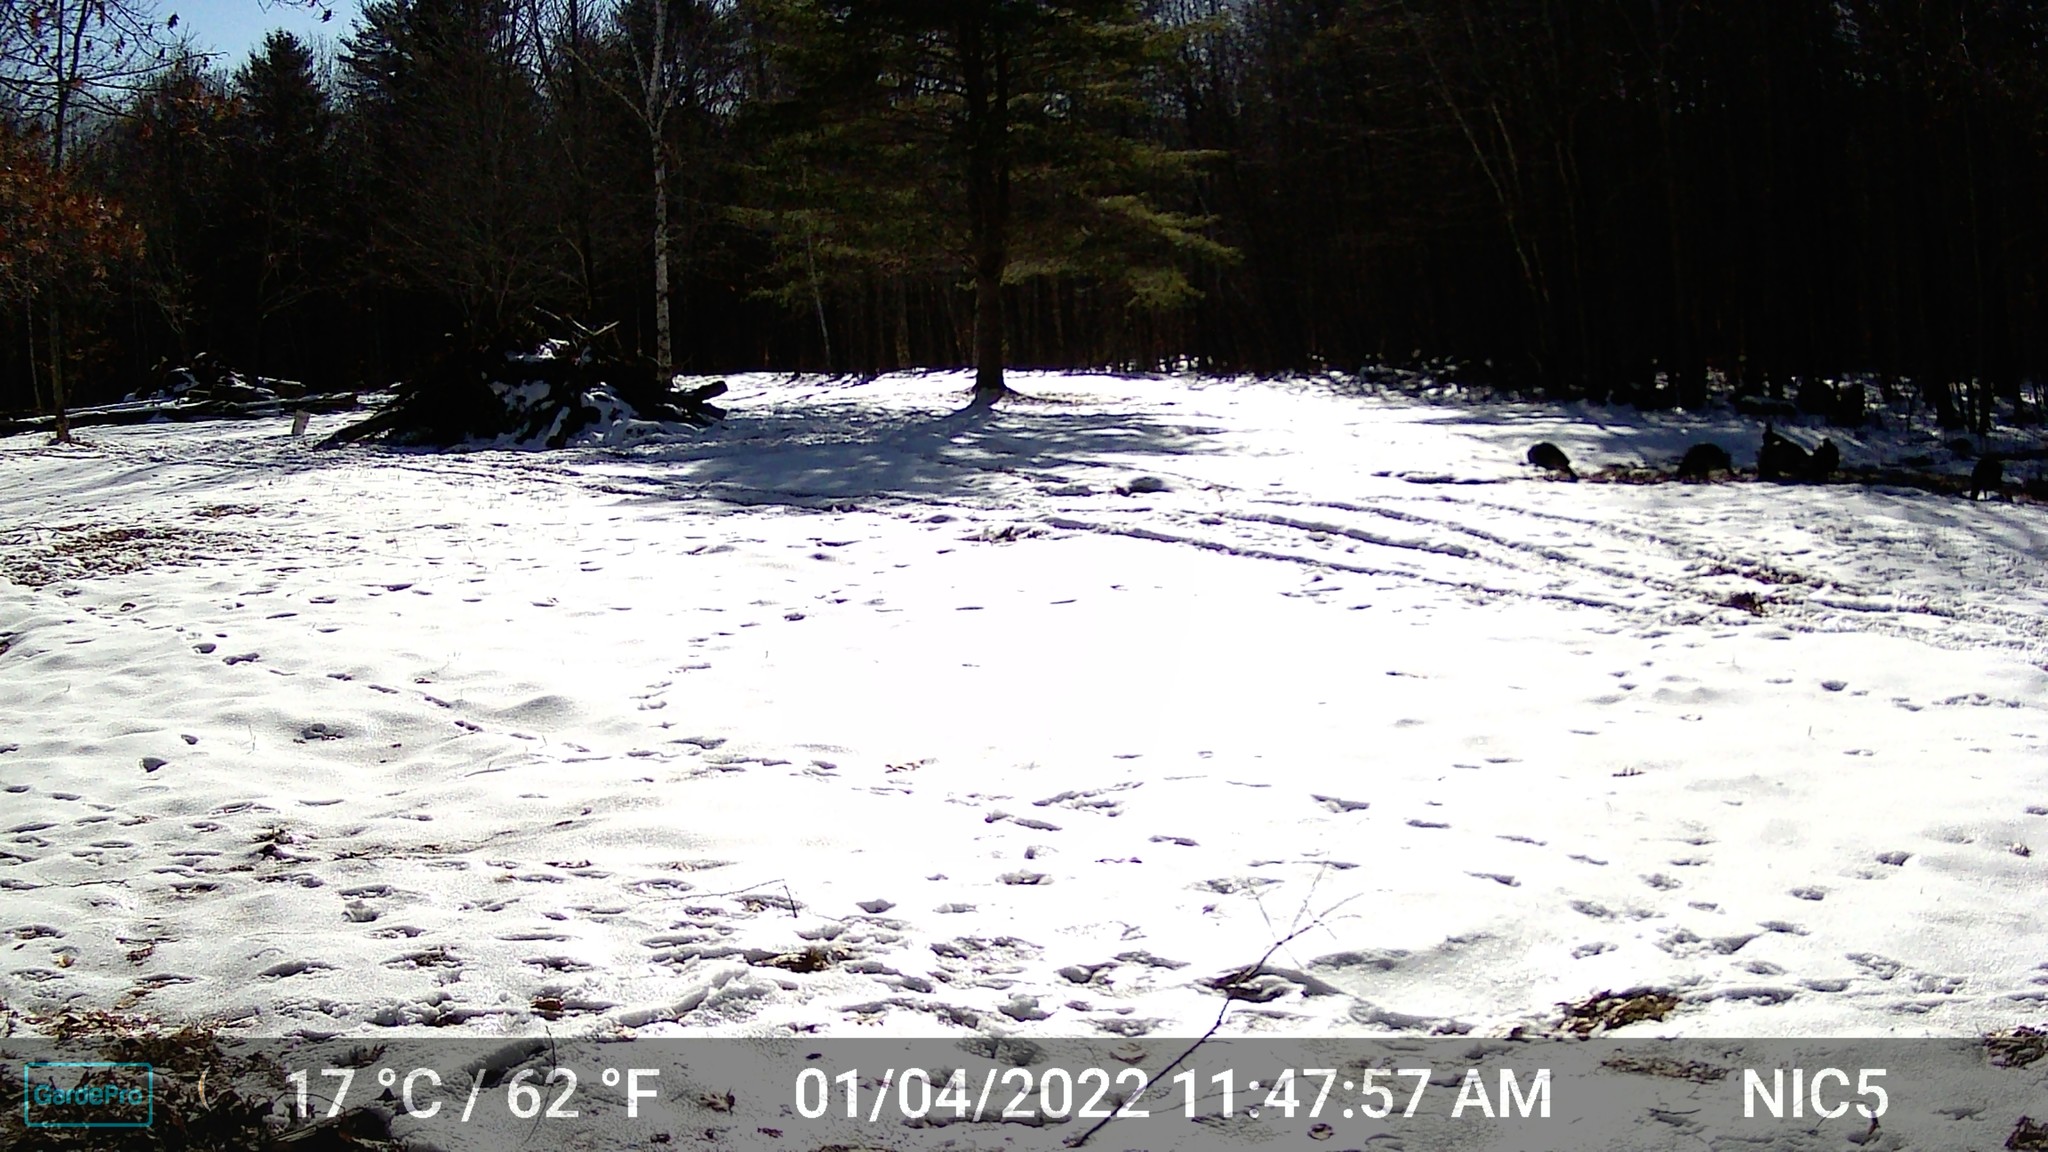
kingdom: Animalia
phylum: Chordata
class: Aves
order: Galliformes
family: Phasianidae
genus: Meleagris
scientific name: Meleagris gallopavo
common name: Wild turkey
